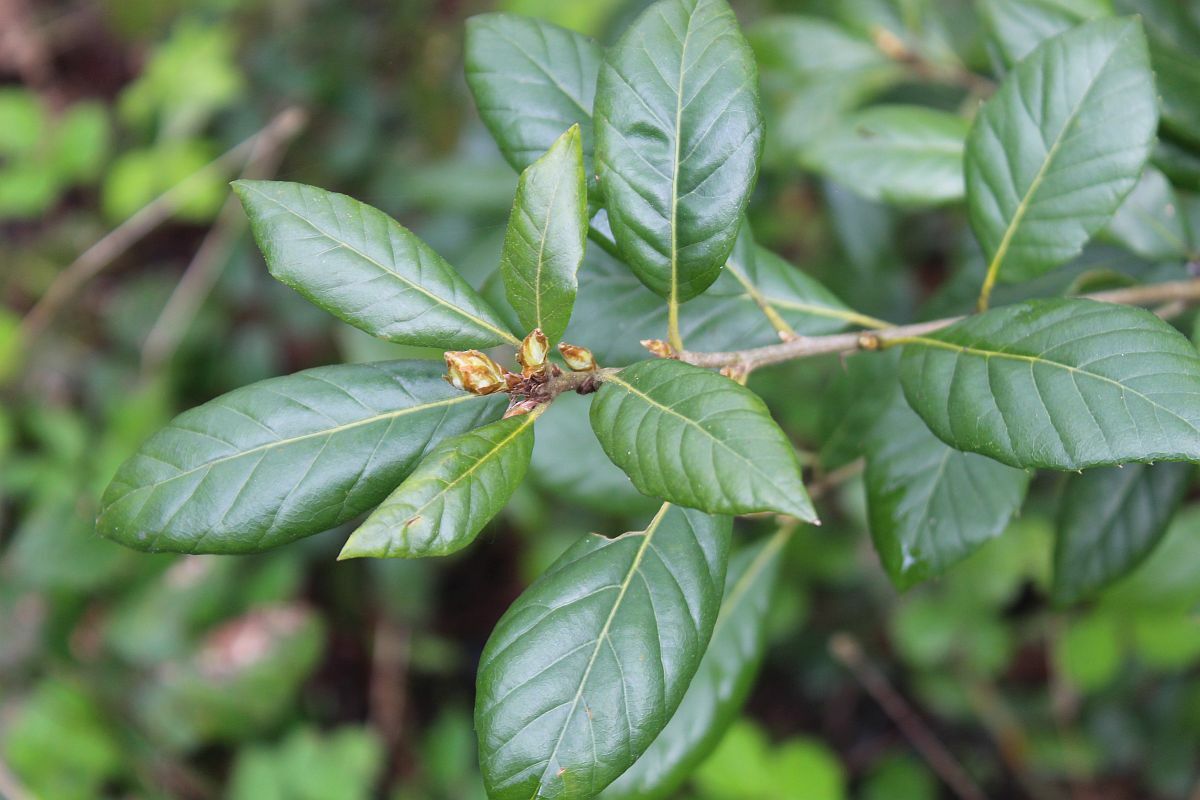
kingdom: Plantae
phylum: Tracheophyta
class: Magnoliopsida
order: Fagales
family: Fagaceae
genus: Quercus
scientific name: Quercus ilex
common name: Evergreen oak
